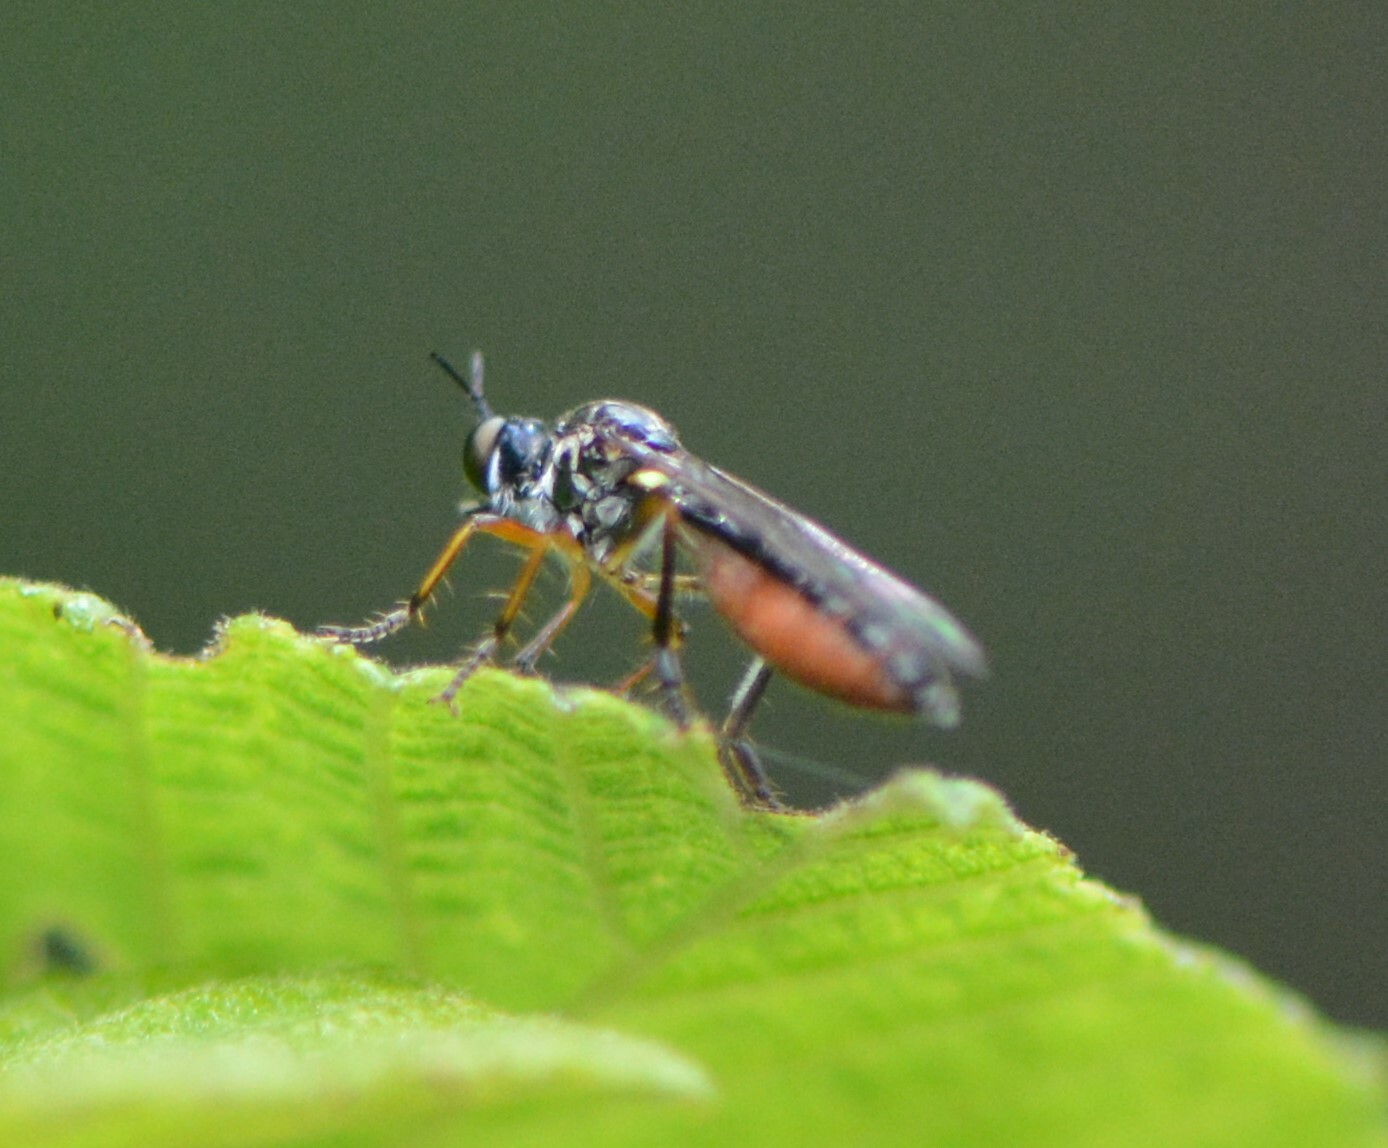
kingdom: Animalia
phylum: Arthropoda
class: Insecta
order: Diptera
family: Asilidae
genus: Dioctria
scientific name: Dioctria hyalipennis
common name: Stripe-legged robberfly
